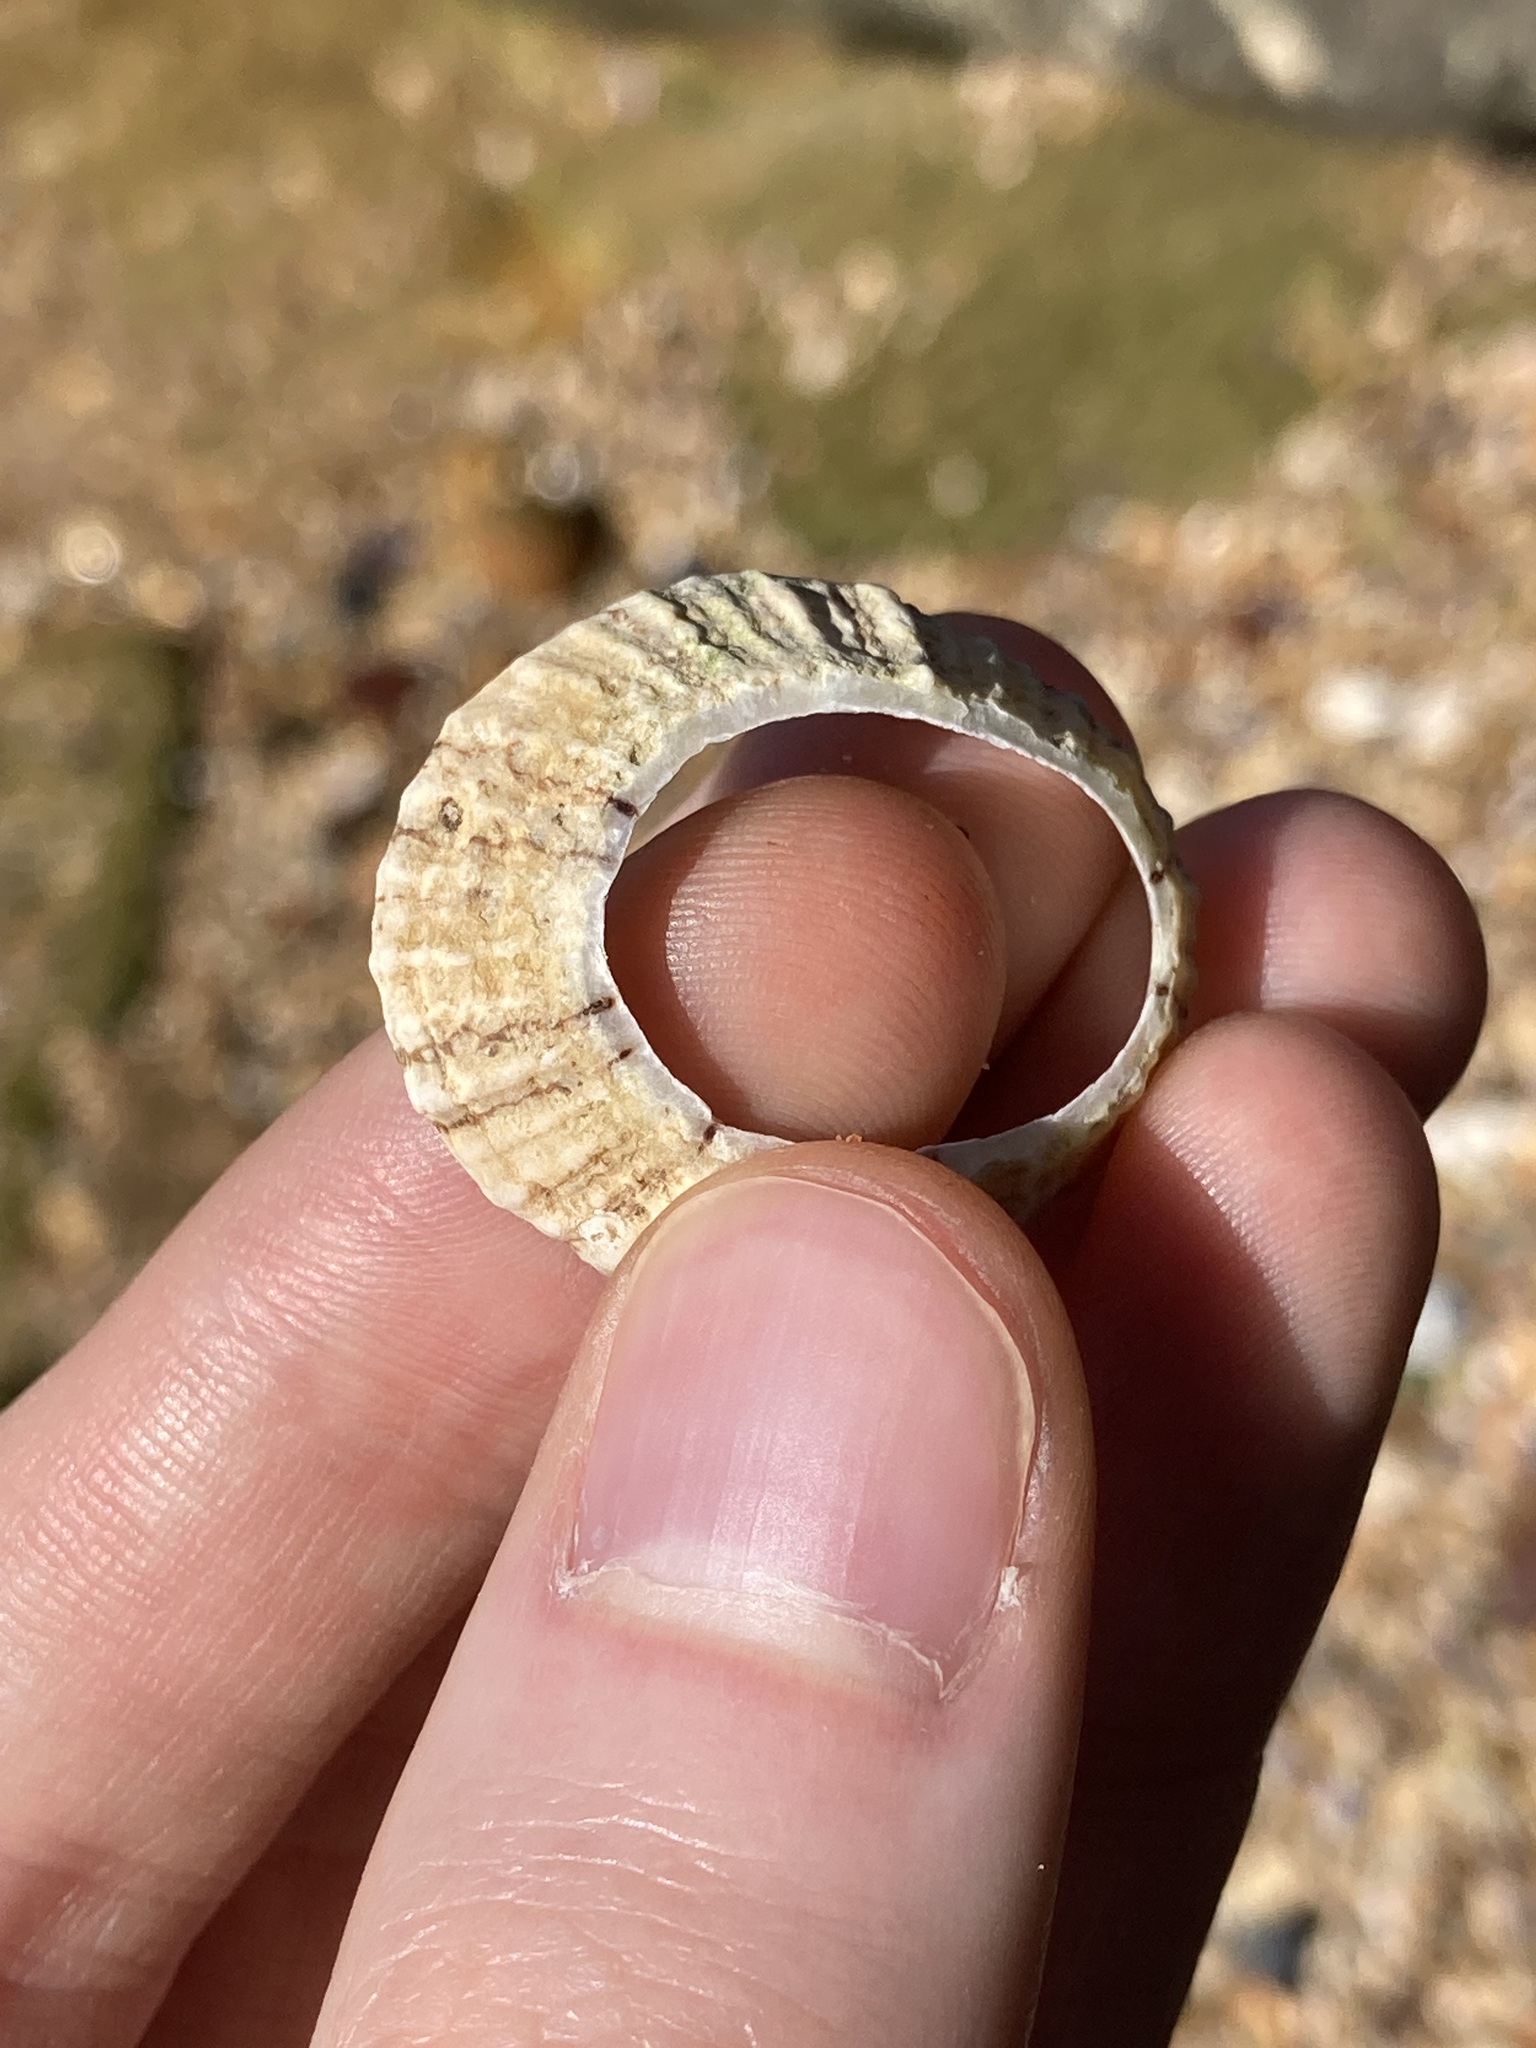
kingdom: Animalia
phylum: Mollusca
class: Gastropoda
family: Nacellidae
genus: Cellana
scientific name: Cellana tramoserica
